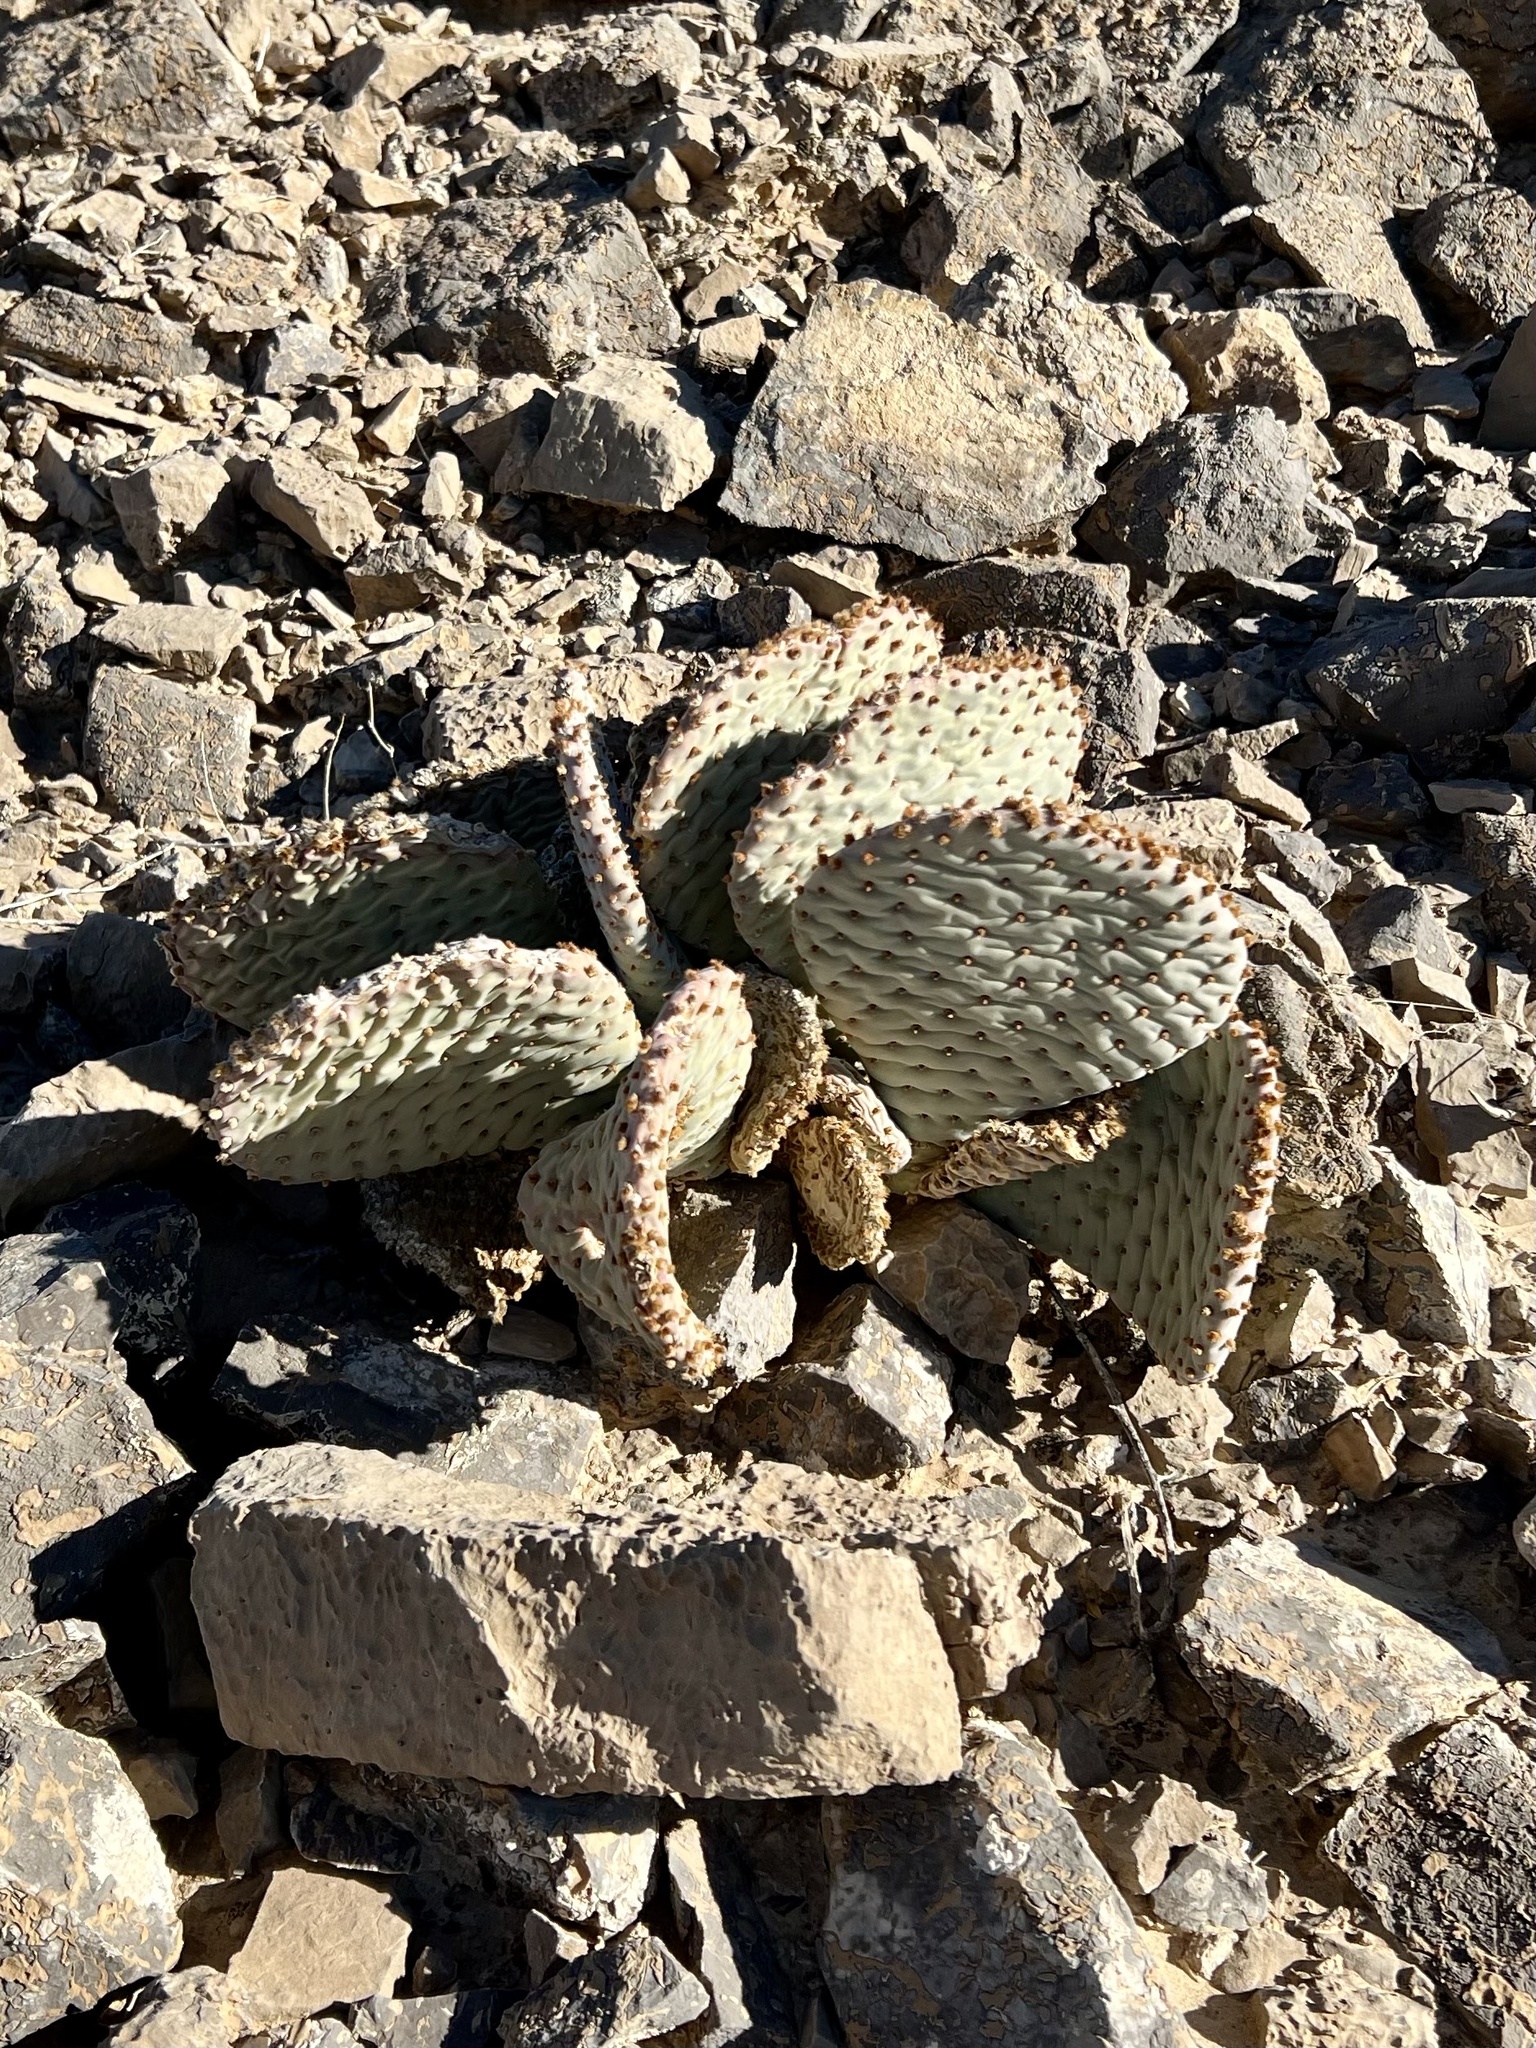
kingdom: Plantae
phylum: Tracheophyta
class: Magnoliopsida
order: Caryophyllales
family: Cactaceae
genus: Opuntia
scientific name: Opuntia basilaris
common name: Beavertail prickly-pear
